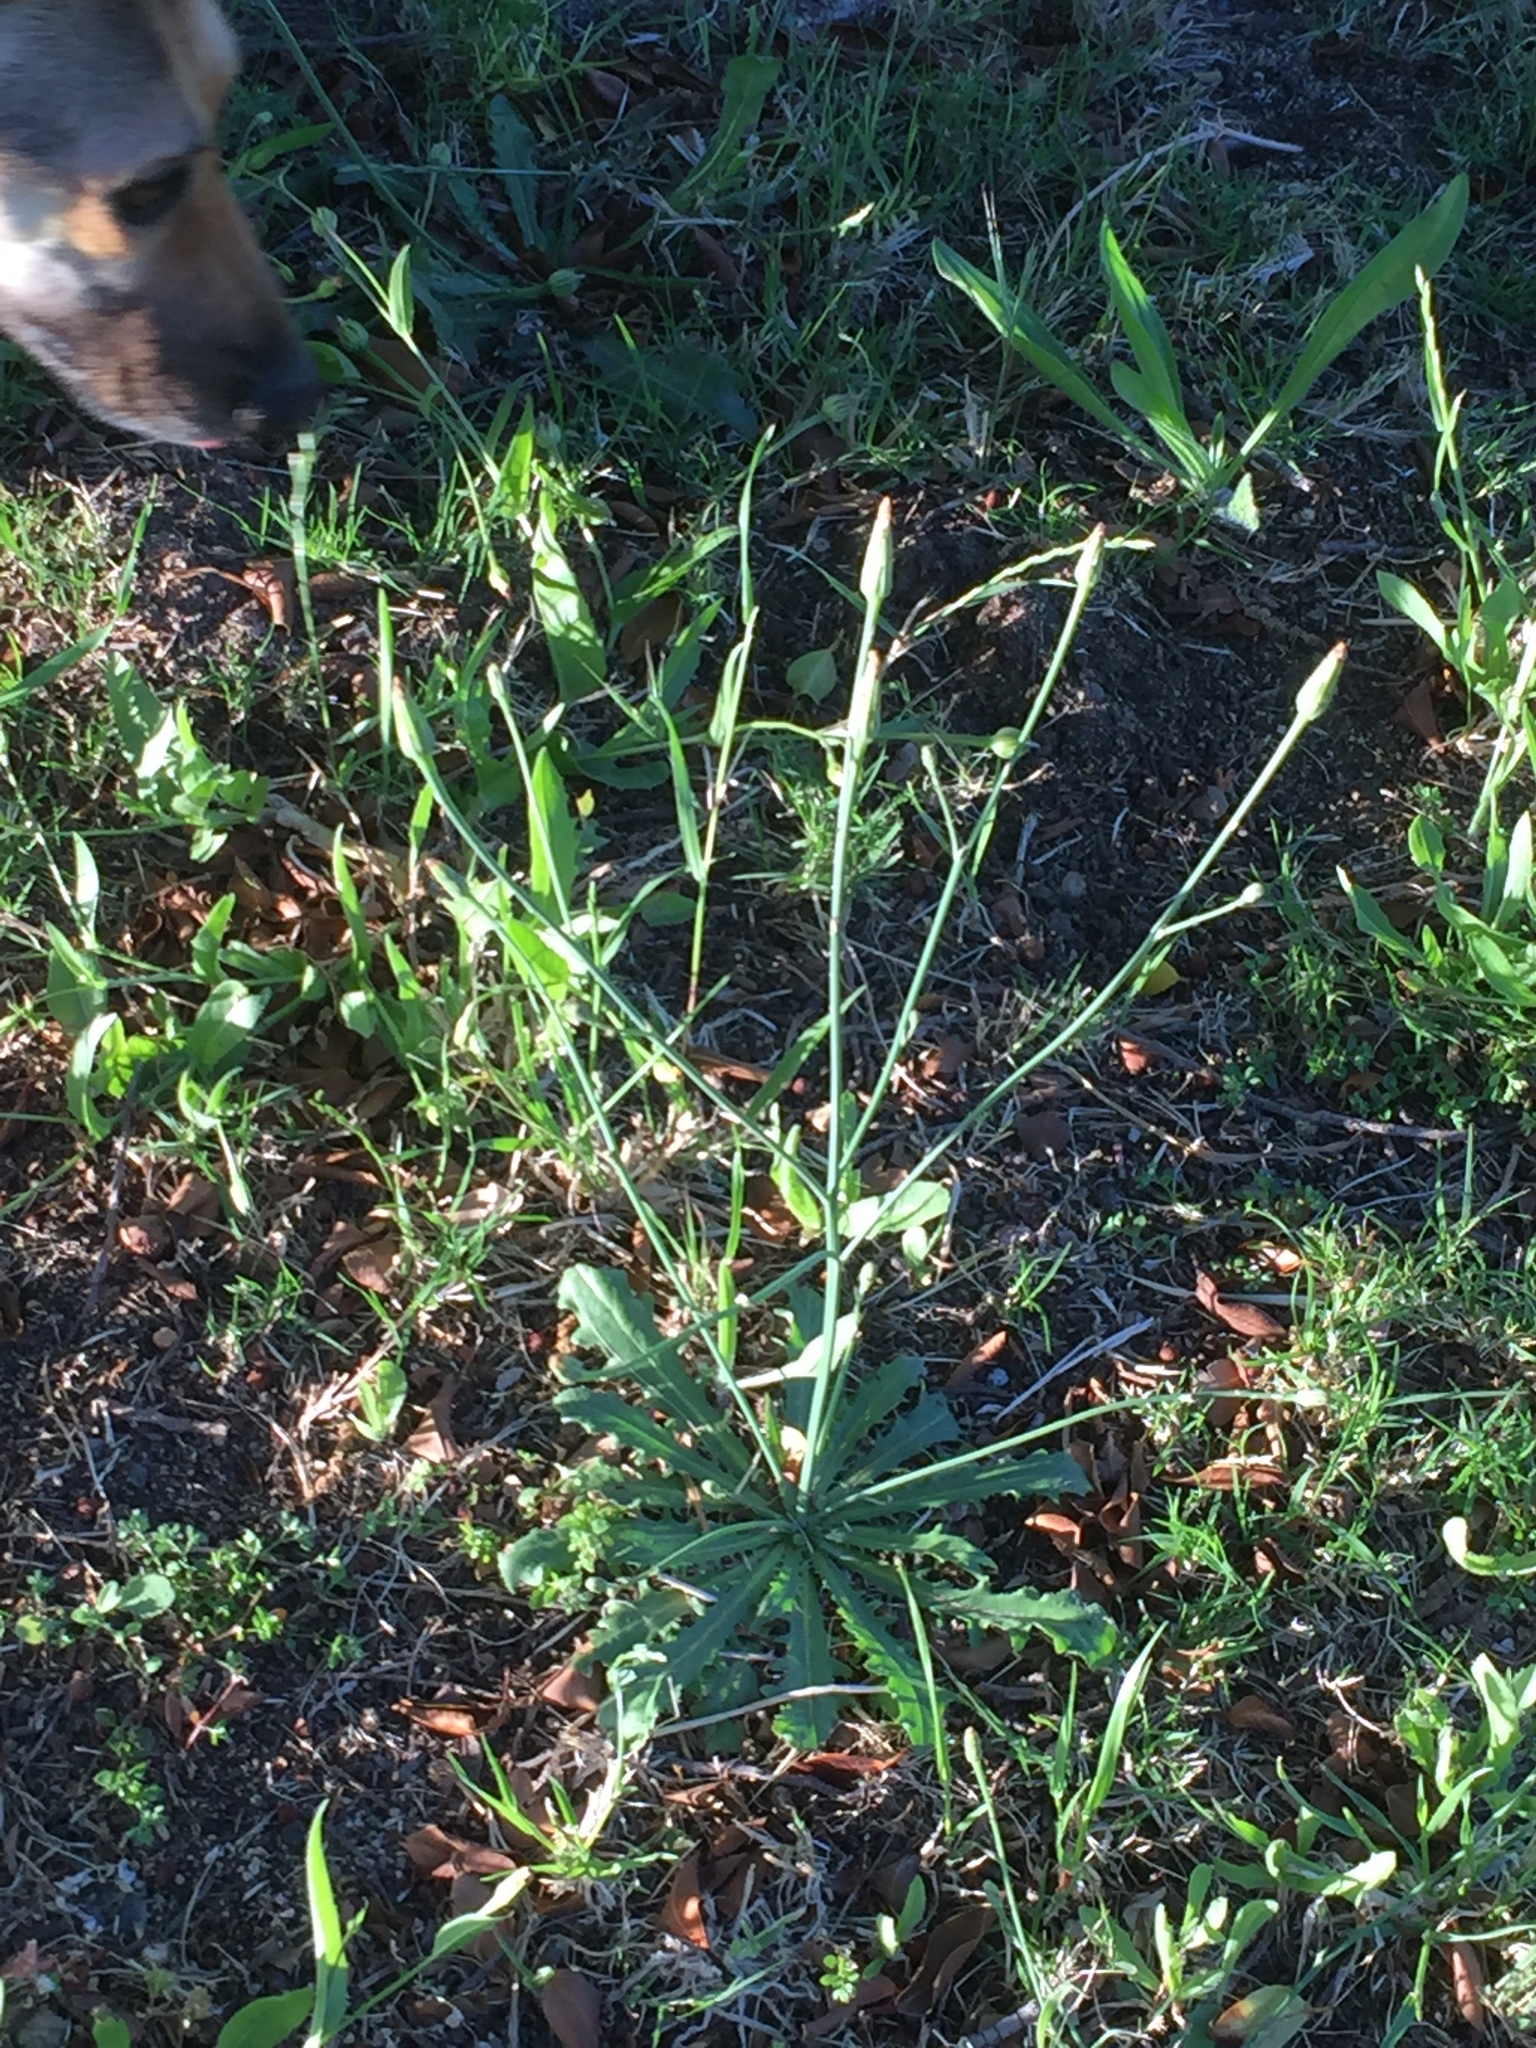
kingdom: Plantae
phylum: Tracheophyta
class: Magnoliopsida
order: Asterales
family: Asteraceae
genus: Hypochaeris
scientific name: Hypochaeris radicata
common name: Flatweed
